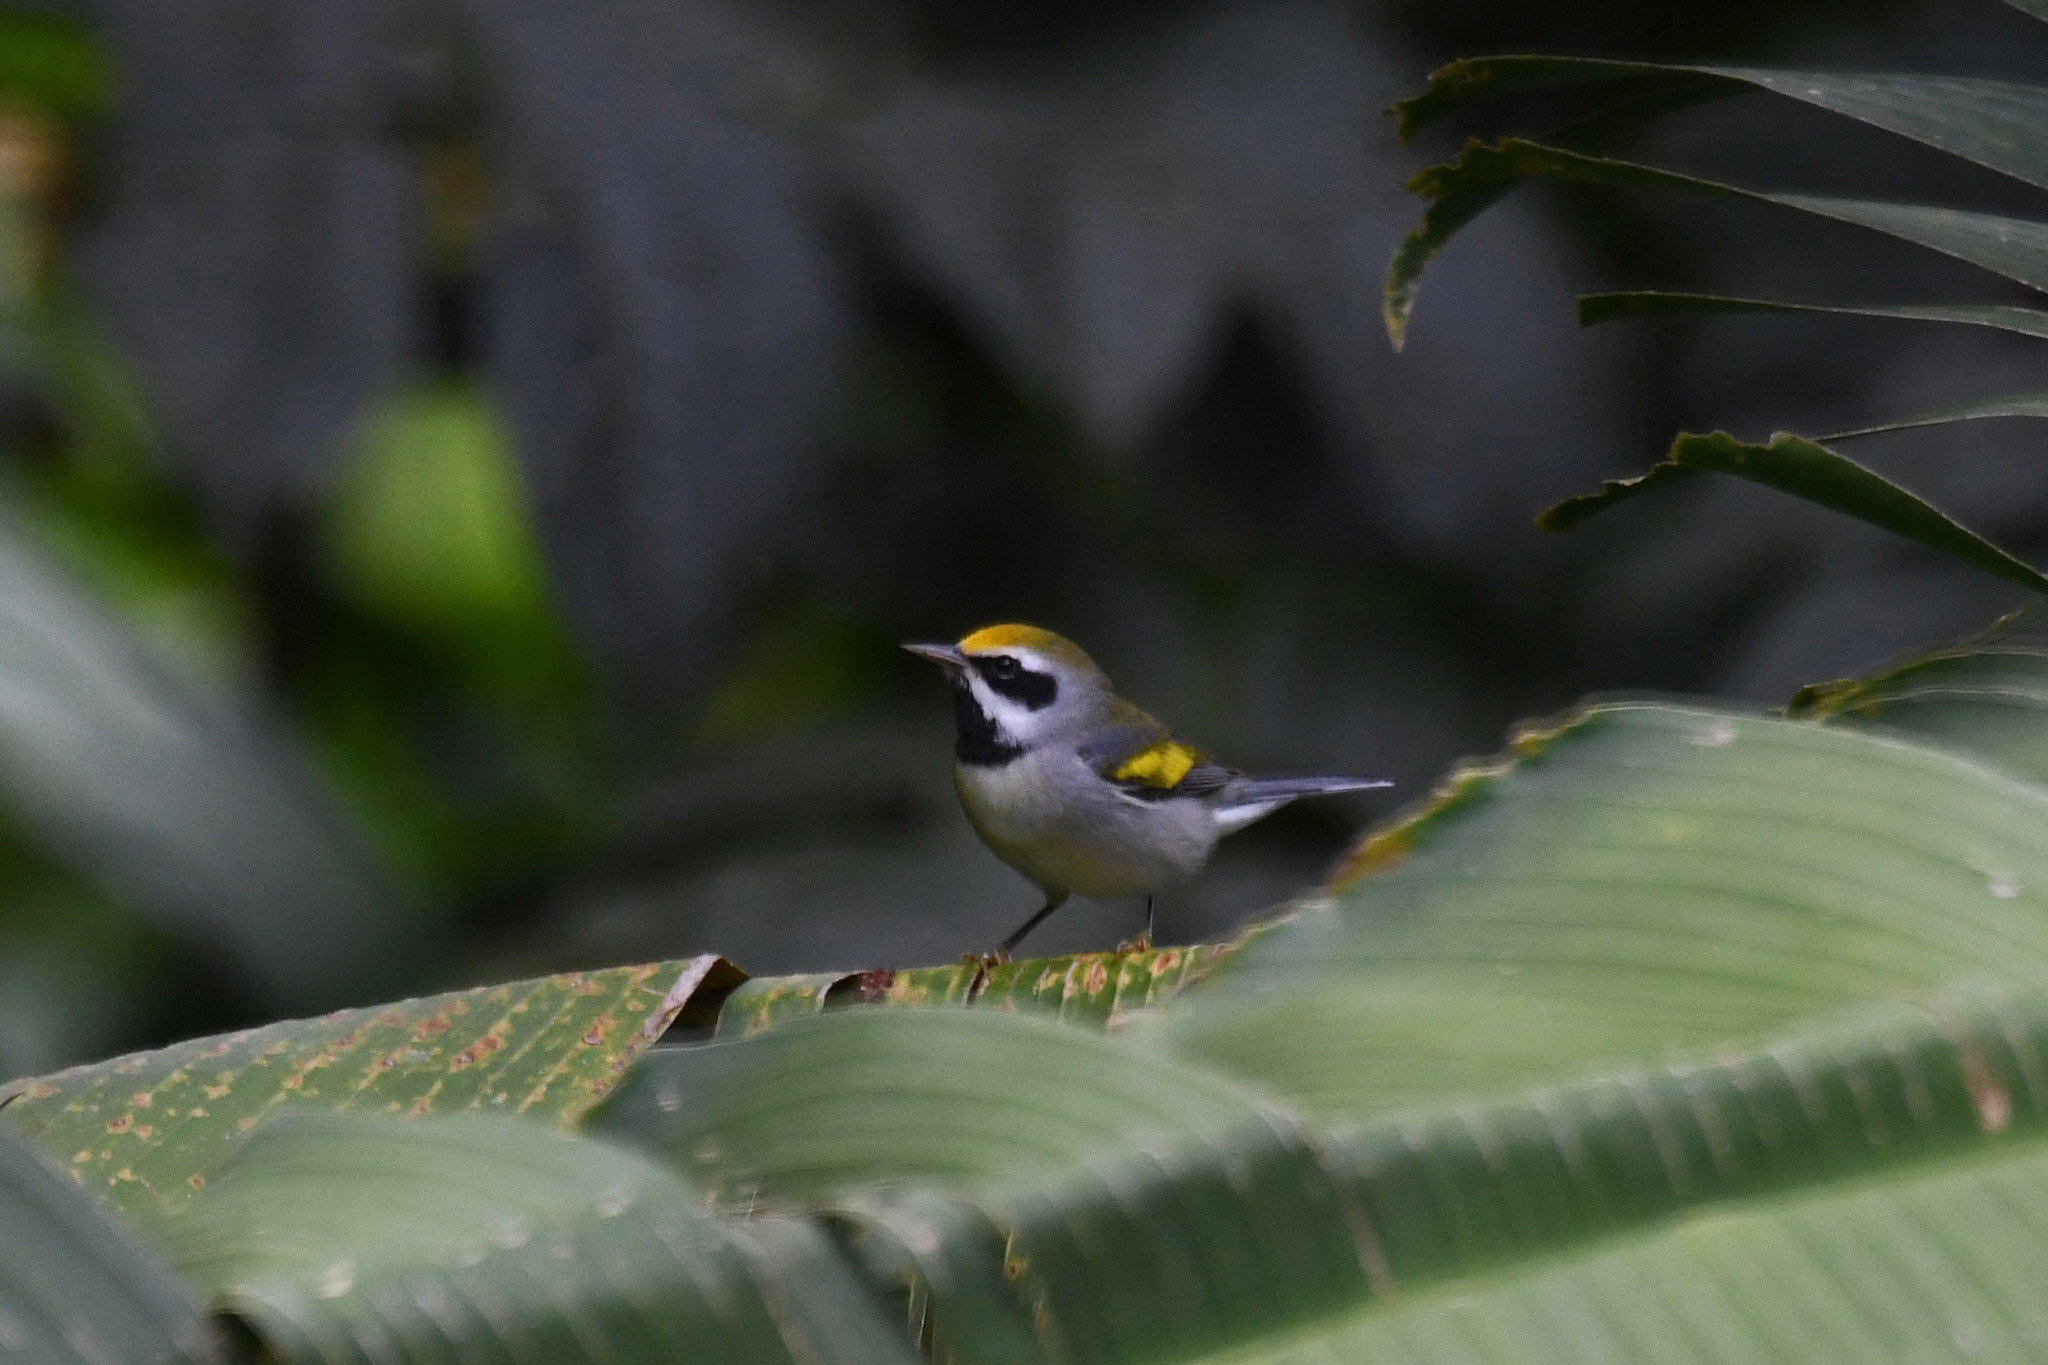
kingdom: Animalia
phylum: Chordata
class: Aves
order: Passeriformes
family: Parulidae
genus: Vermivora
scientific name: Vermivora chrysoptera
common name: Golden-winged warbler
